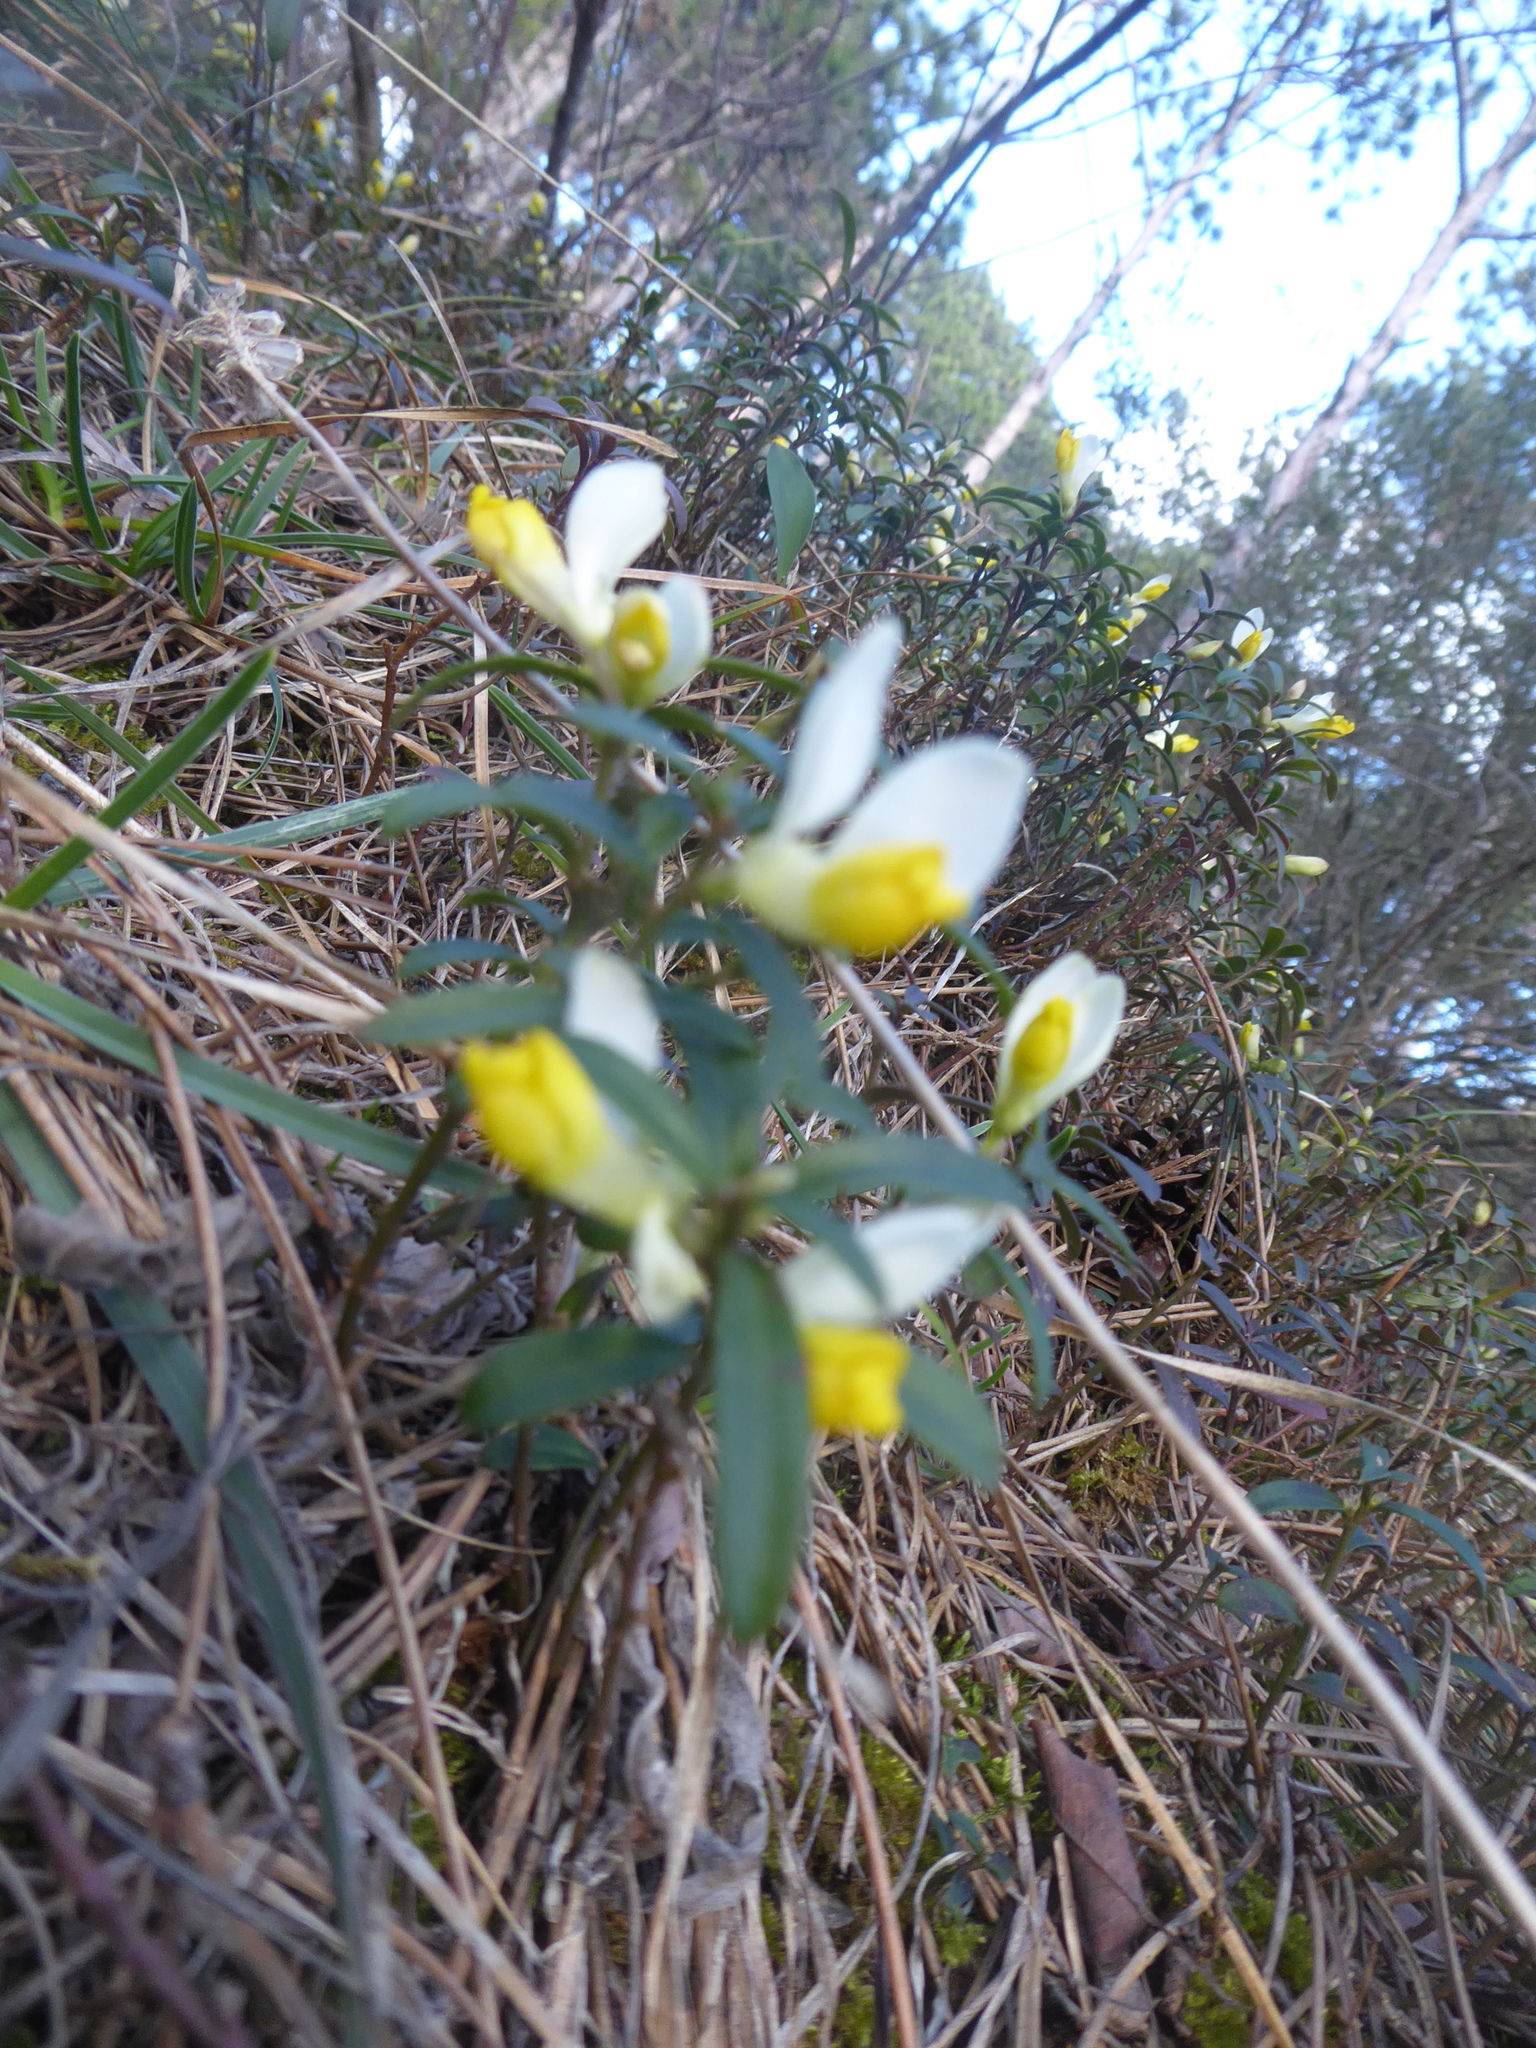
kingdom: Plantae
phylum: Tracheophyta
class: Magnoliopsida
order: Fabales
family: Polygalaceae
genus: Polygaloides
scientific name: Polygaloides chamaebuxus
